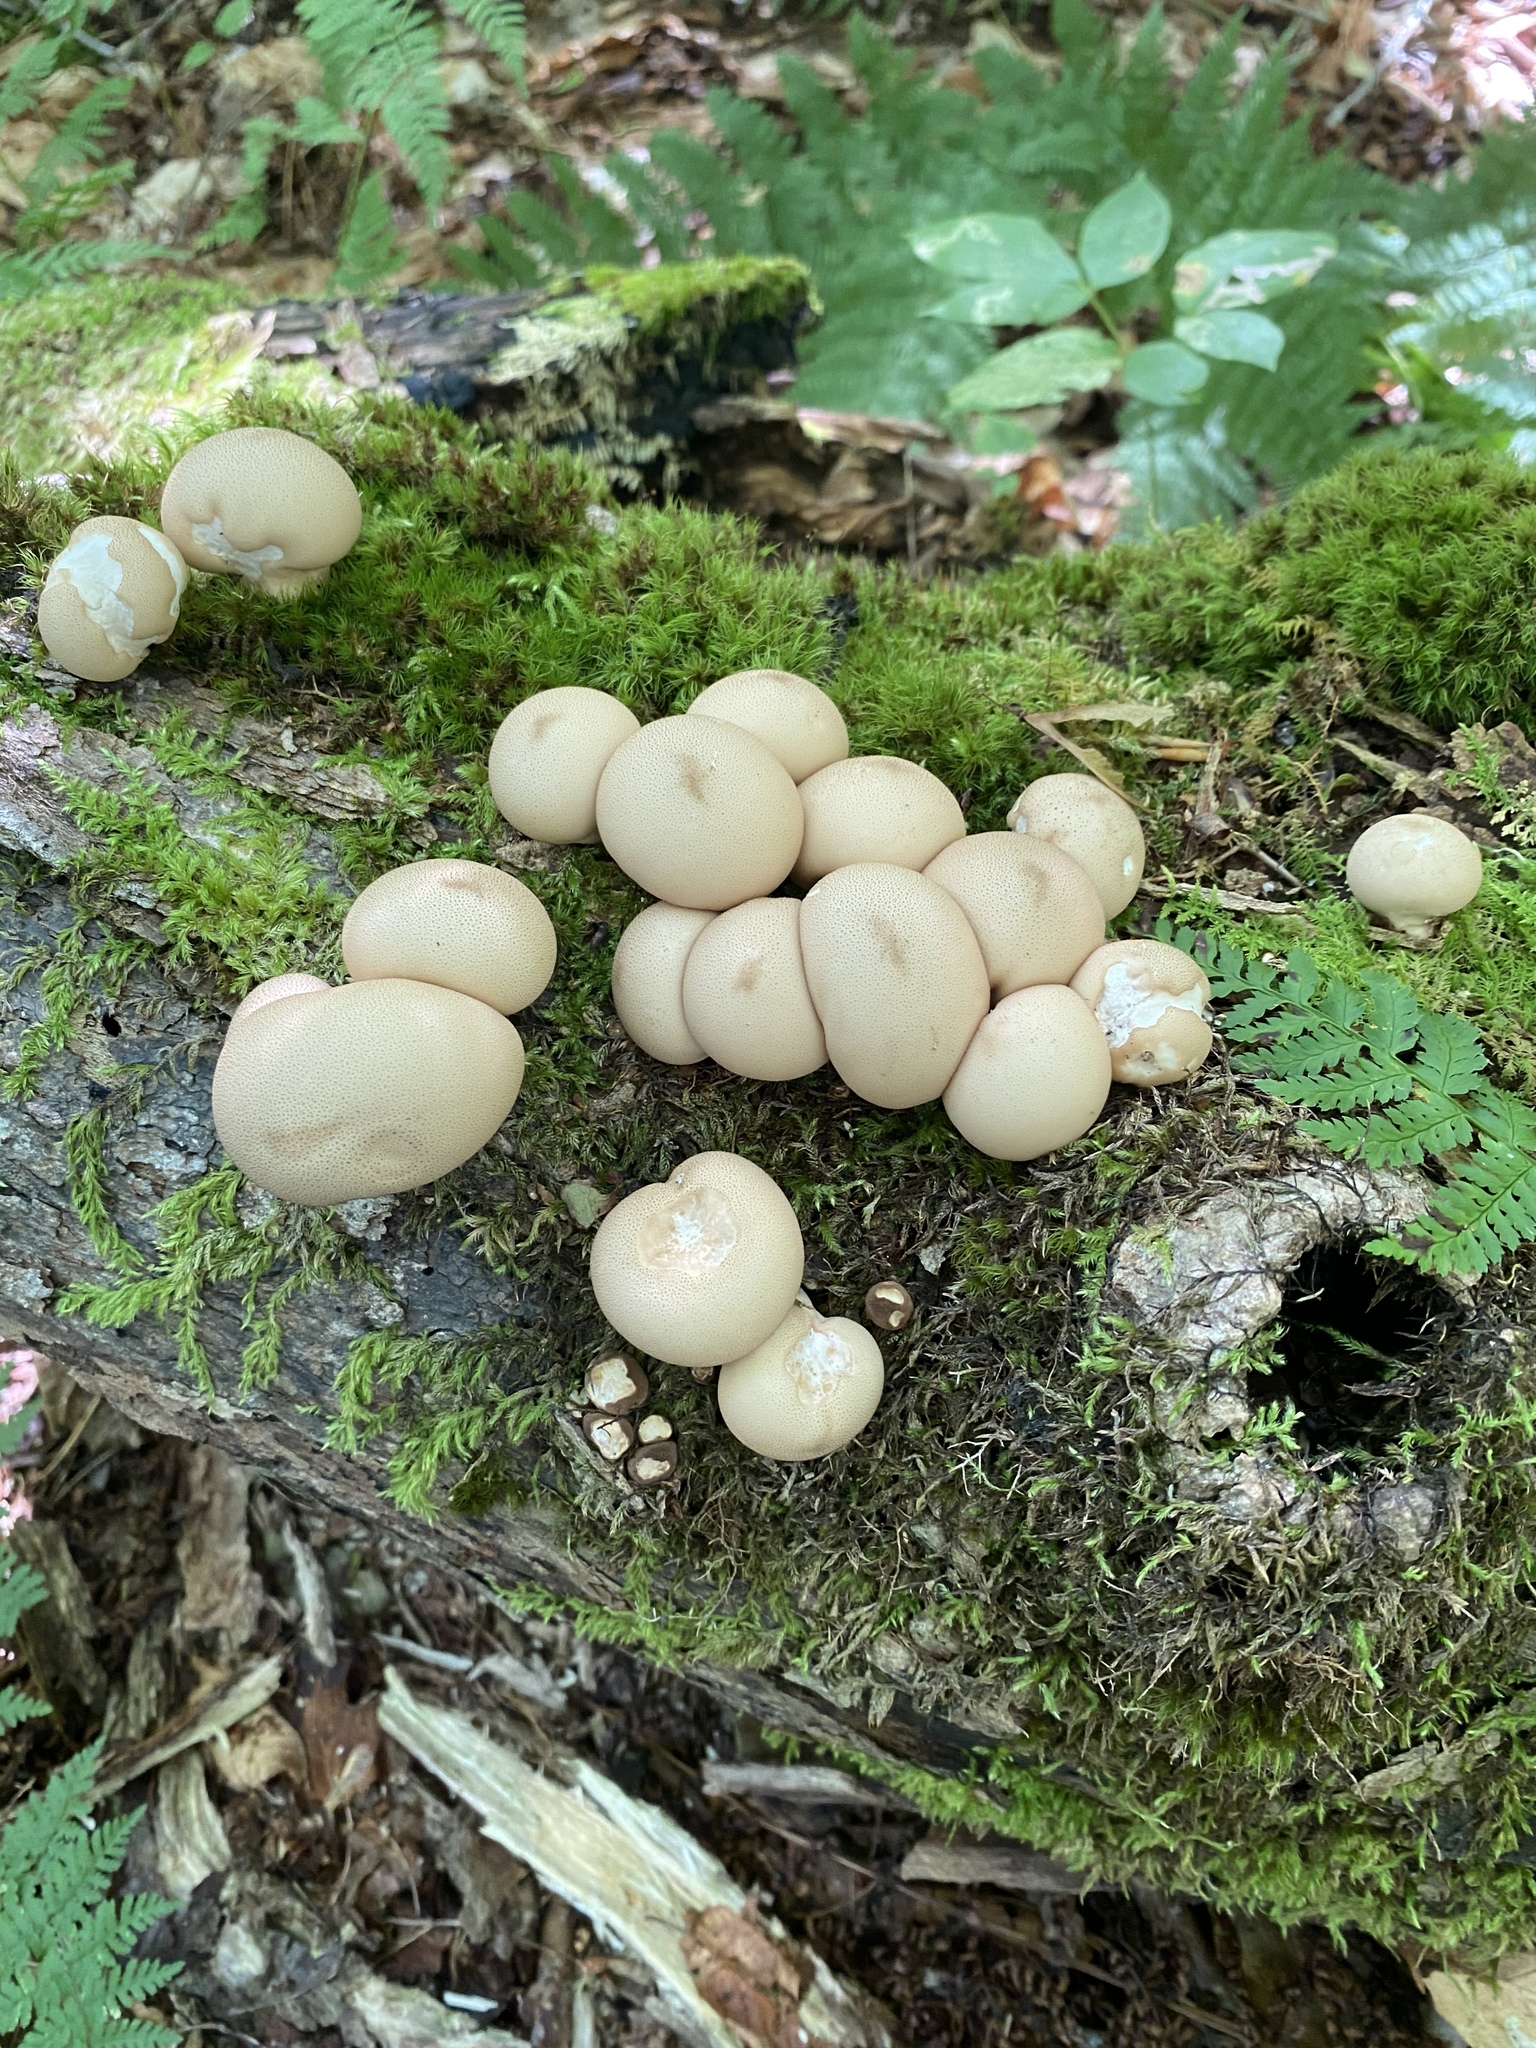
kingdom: Fungi
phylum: Basidiomycota
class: Agaricomycetes
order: Agaricales
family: Lycoperdaceae
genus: Apioperdon
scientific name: Apioperdon pyriforme
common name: Pear-shaped puffball
